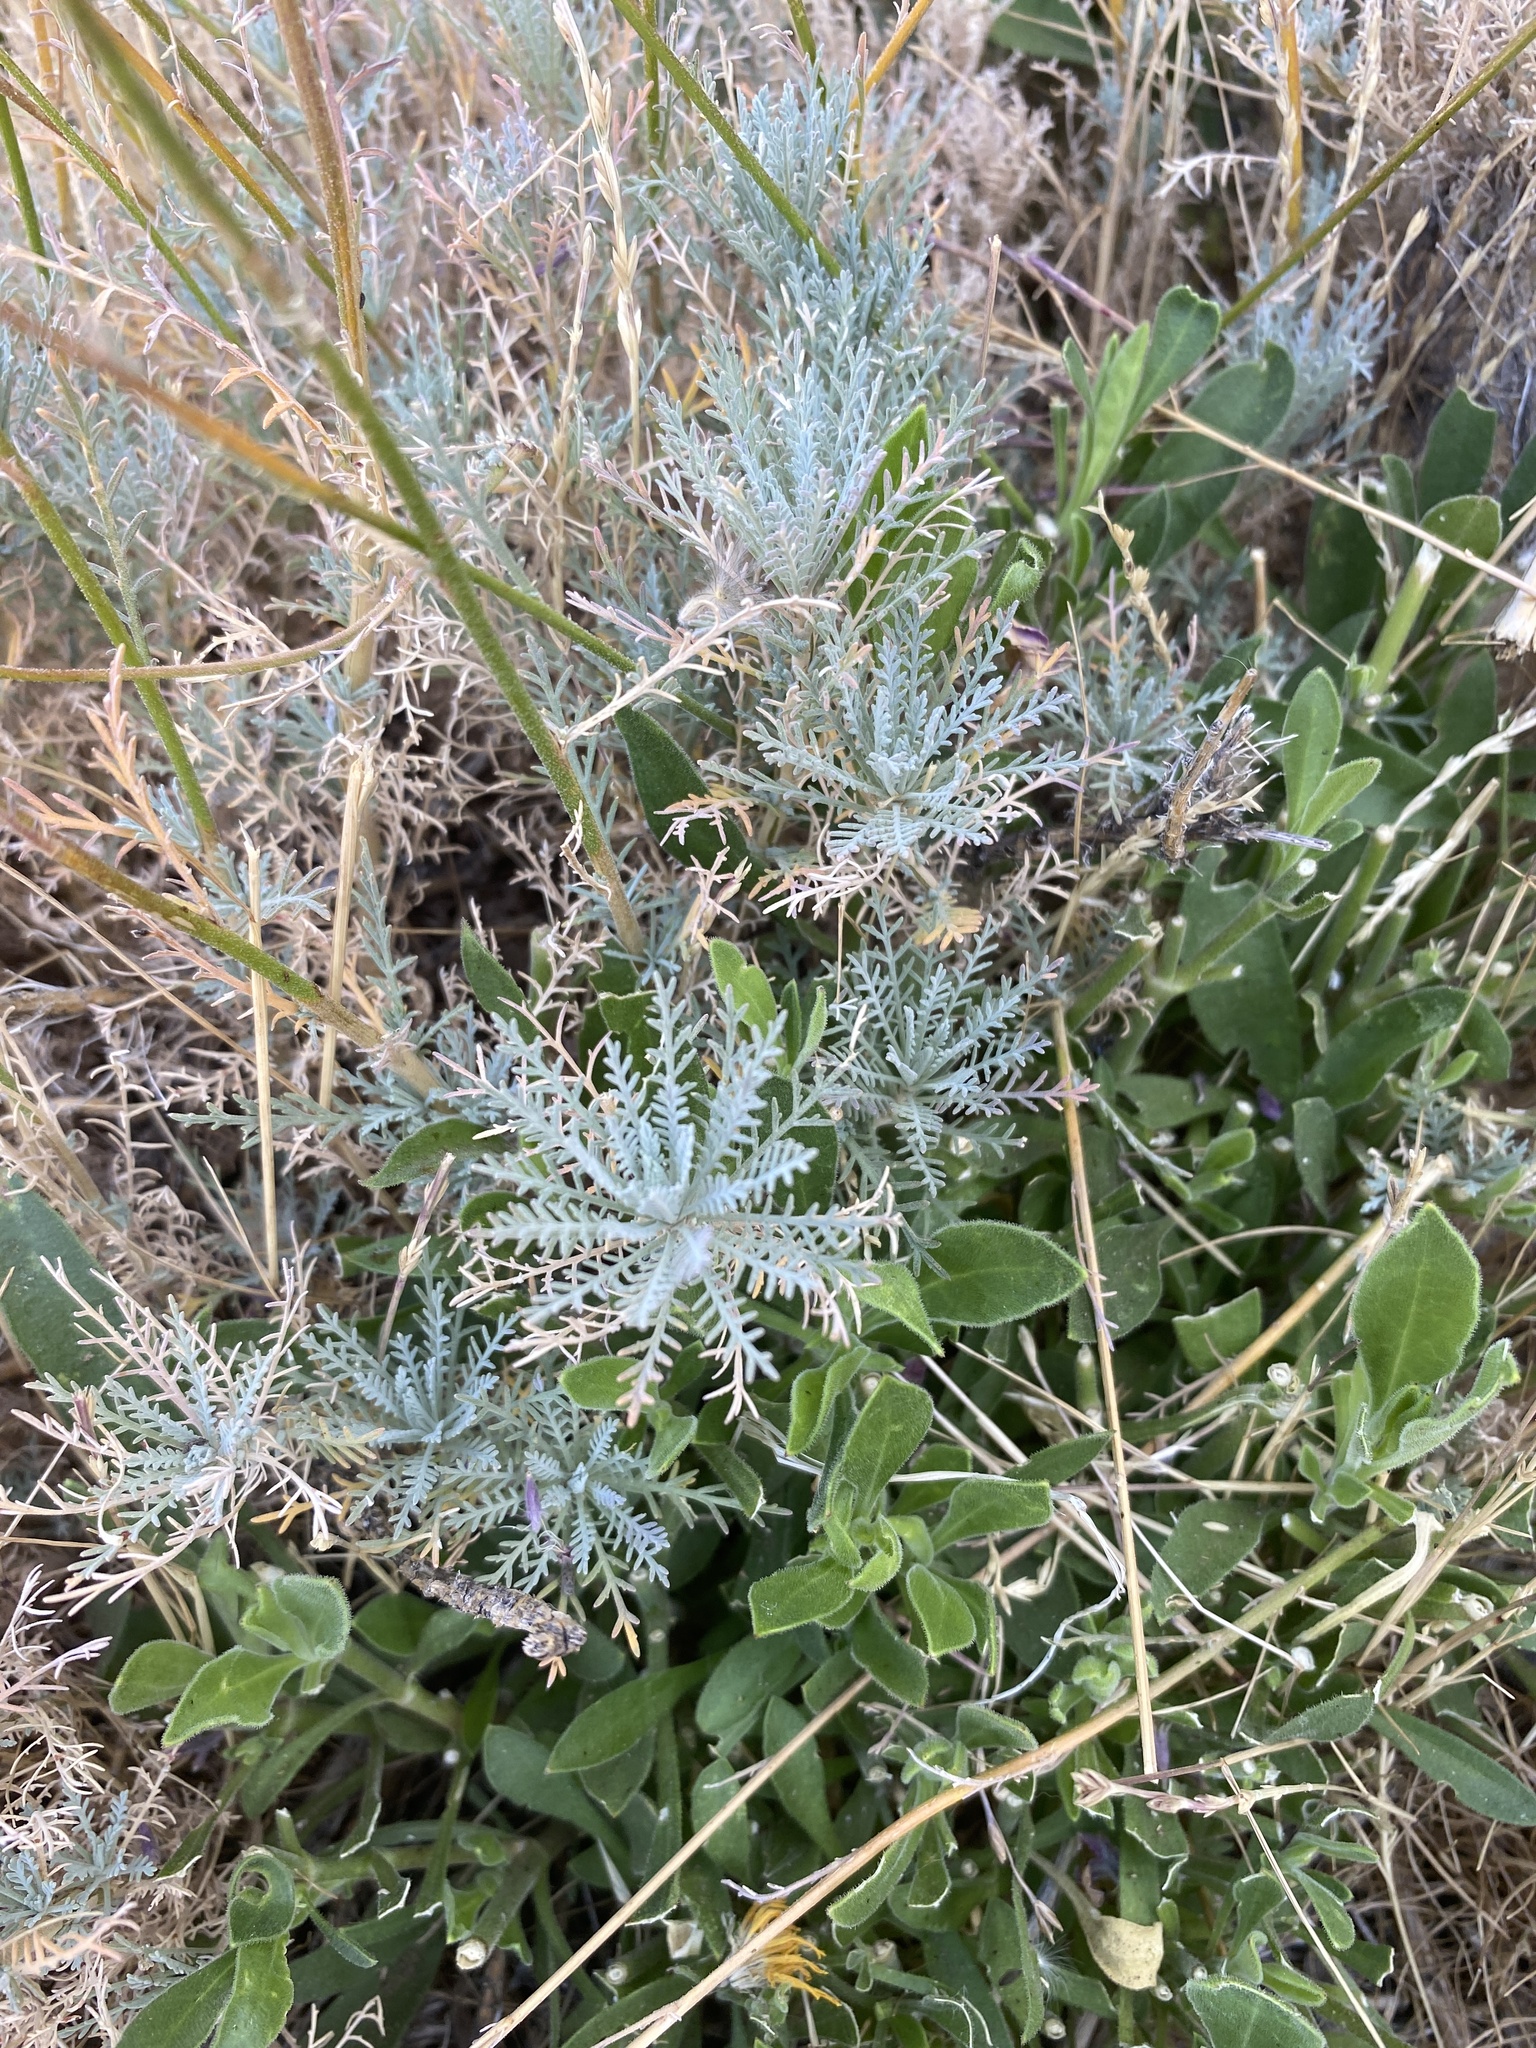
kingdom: Plantae
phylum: Tracheophyta
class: Magnoliopsida
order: Brassicales
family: Brassicaceae
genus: Descurainia
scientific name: Descurainia gilva
